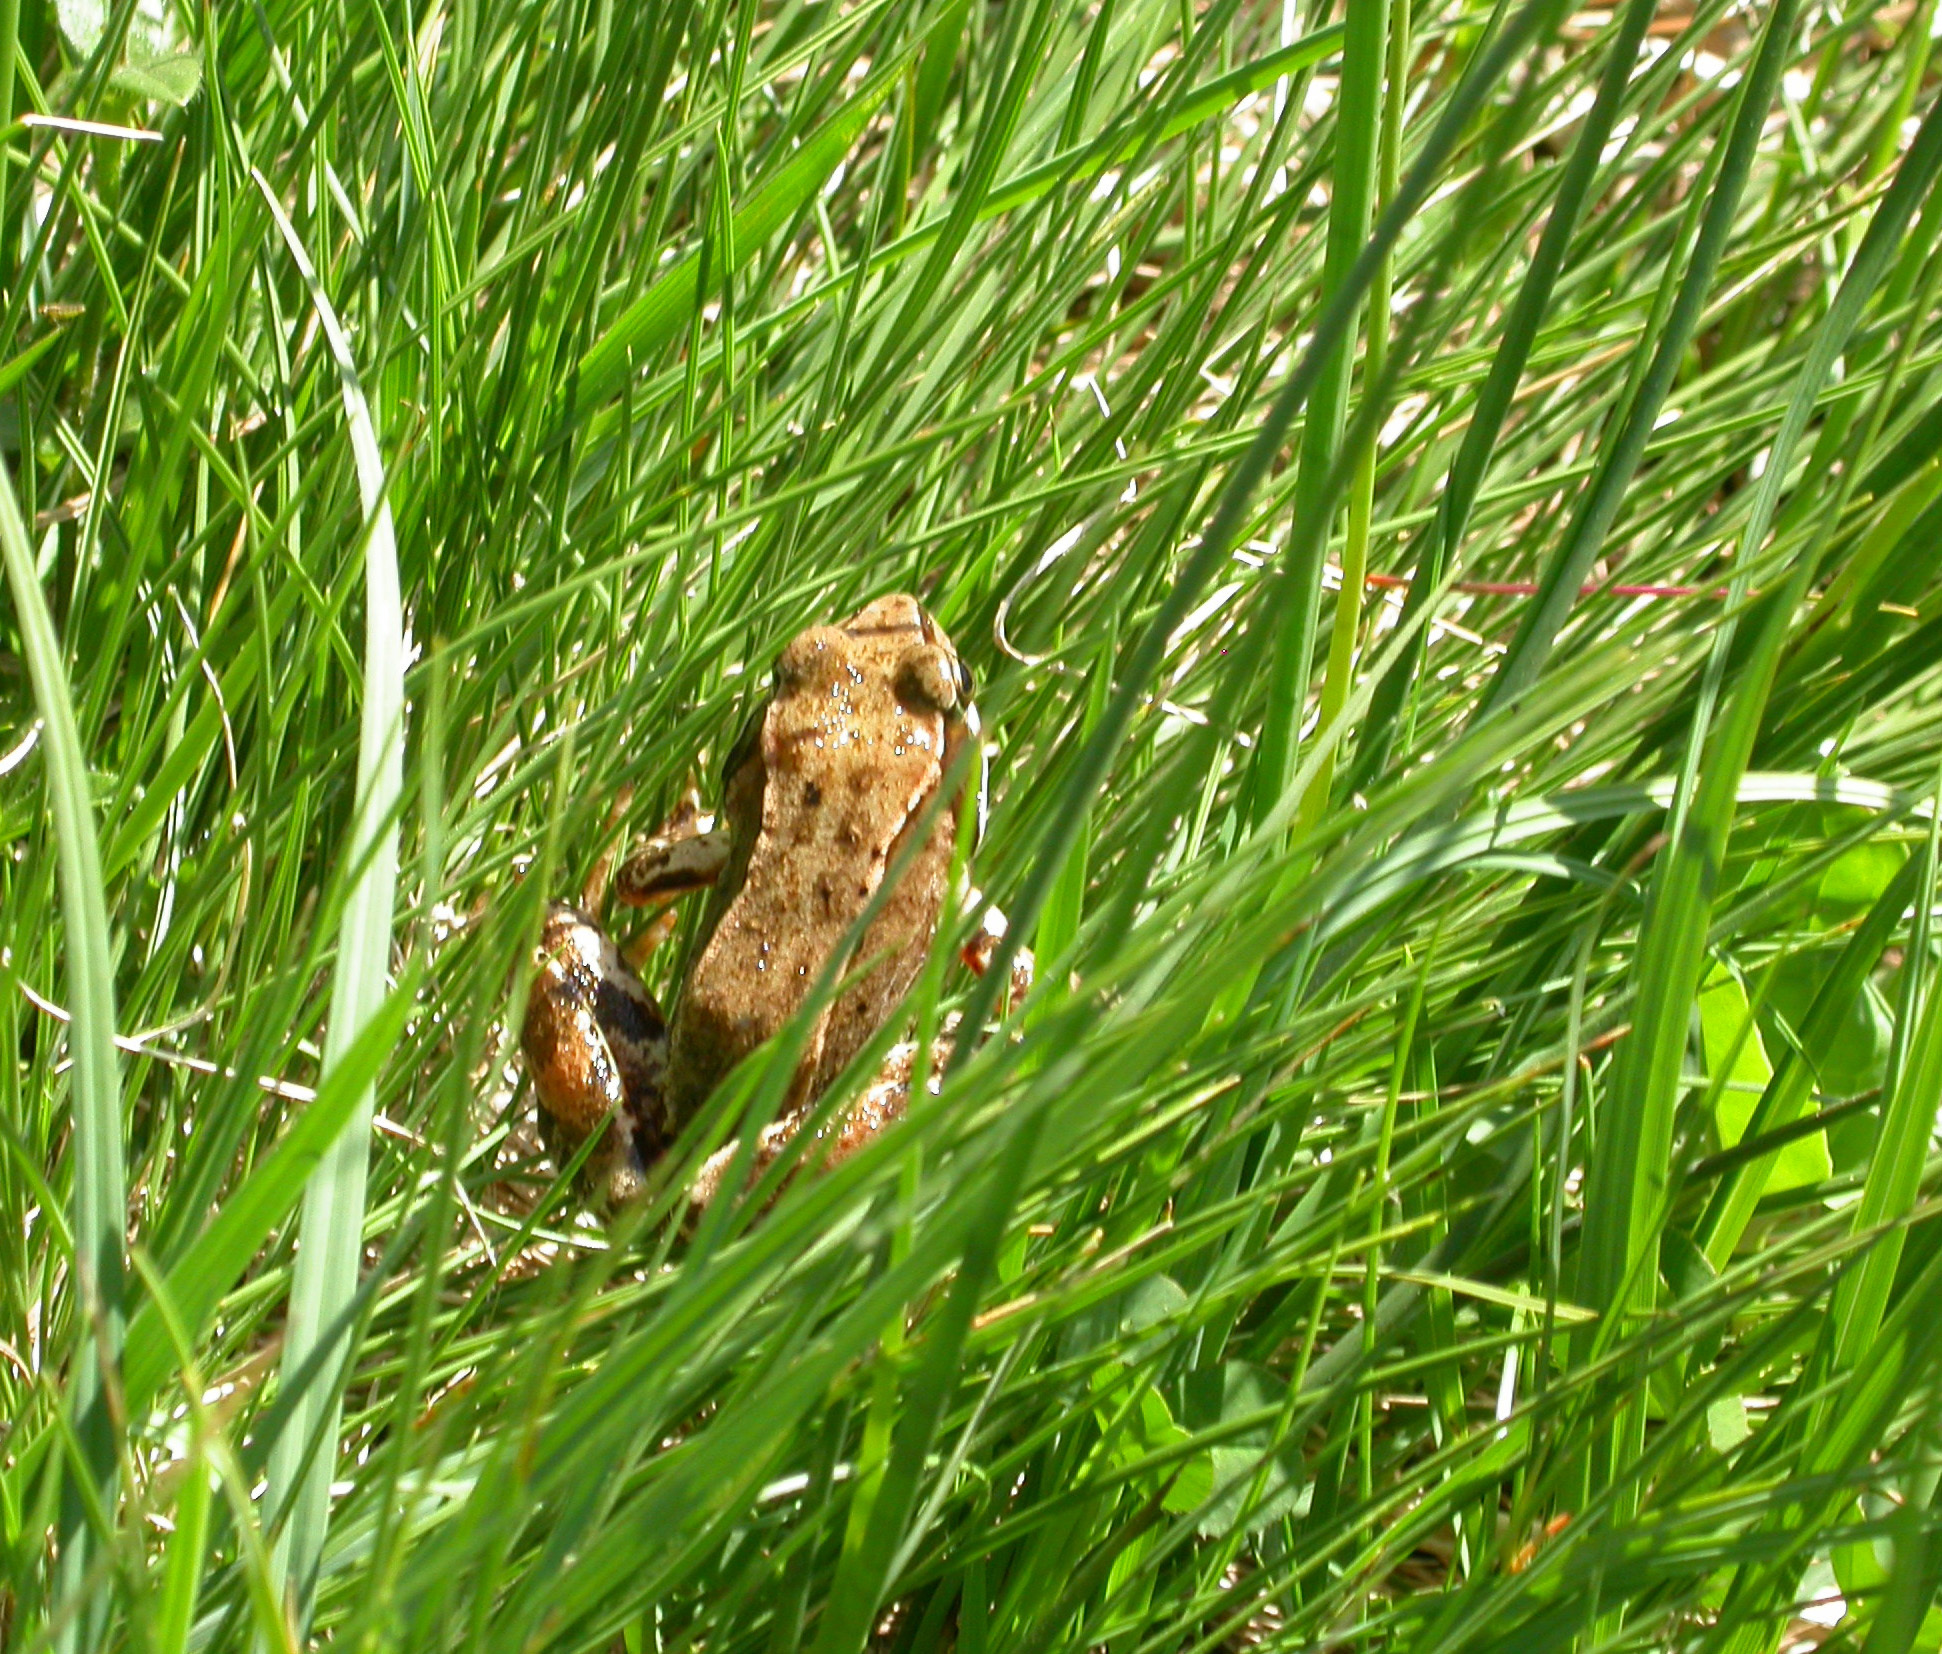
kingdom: Animalia
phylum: Chordata
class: Amphibia
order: Anura
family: Ranidae
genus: Rana
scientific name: Rana temporaria
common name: Common frog
